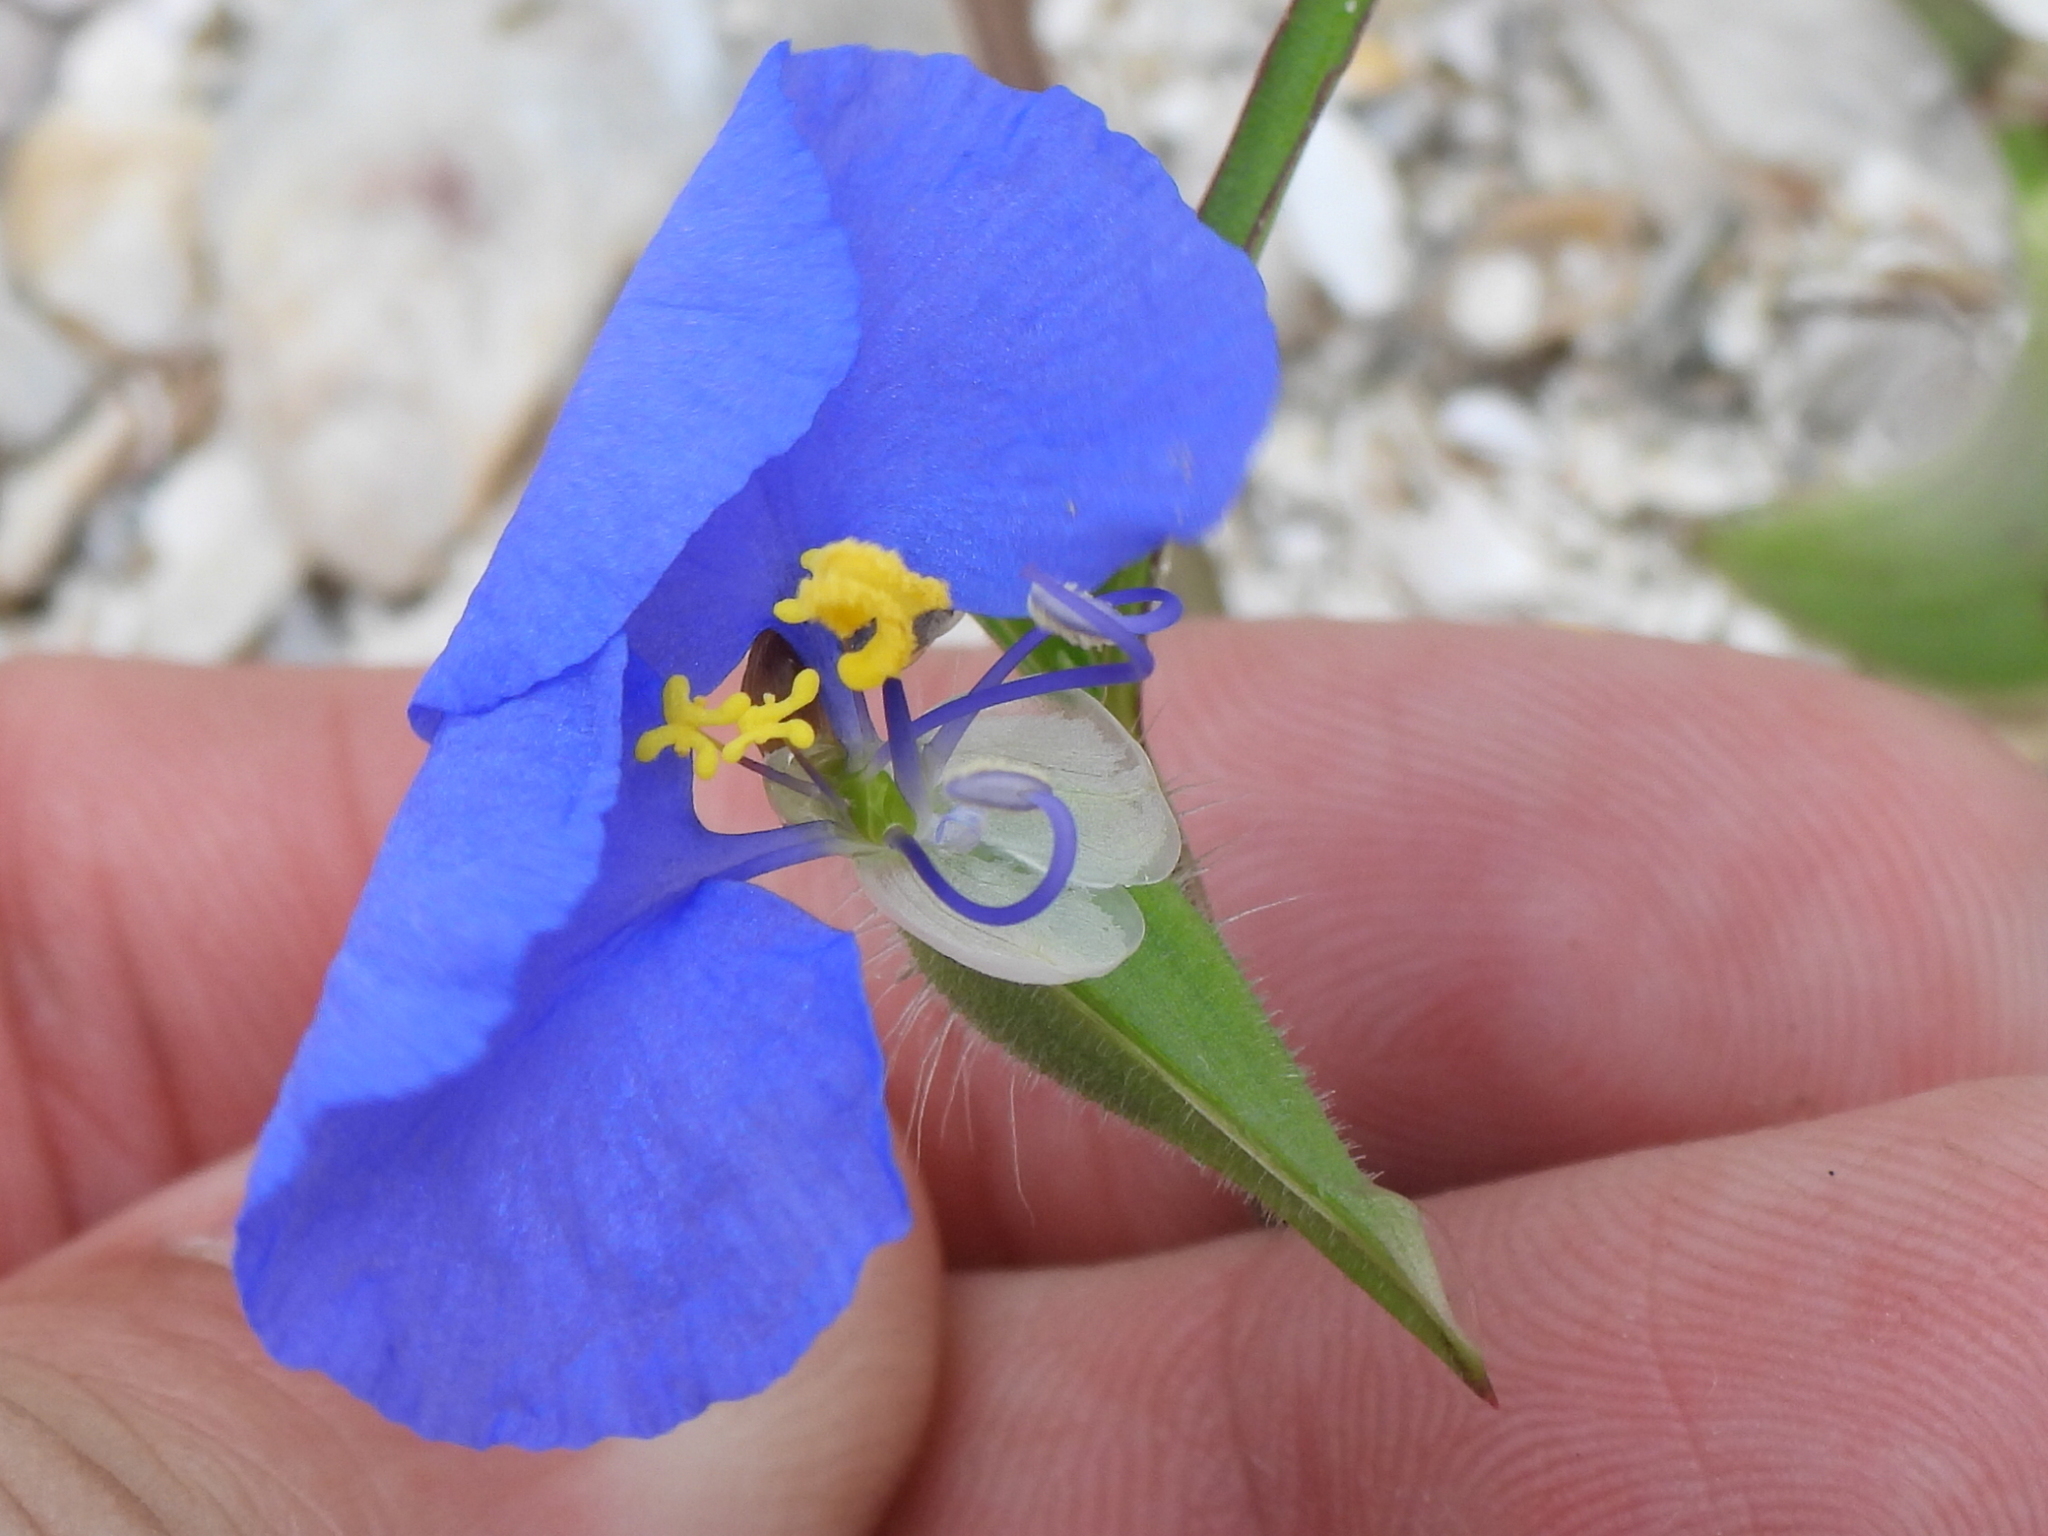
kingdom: Plantae
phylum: Tracheophyta
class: Liliopsida
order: Commelinales
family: Commelinaceae
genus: Commelina
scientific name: Commelina erecta
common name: Blousel blommetjie
